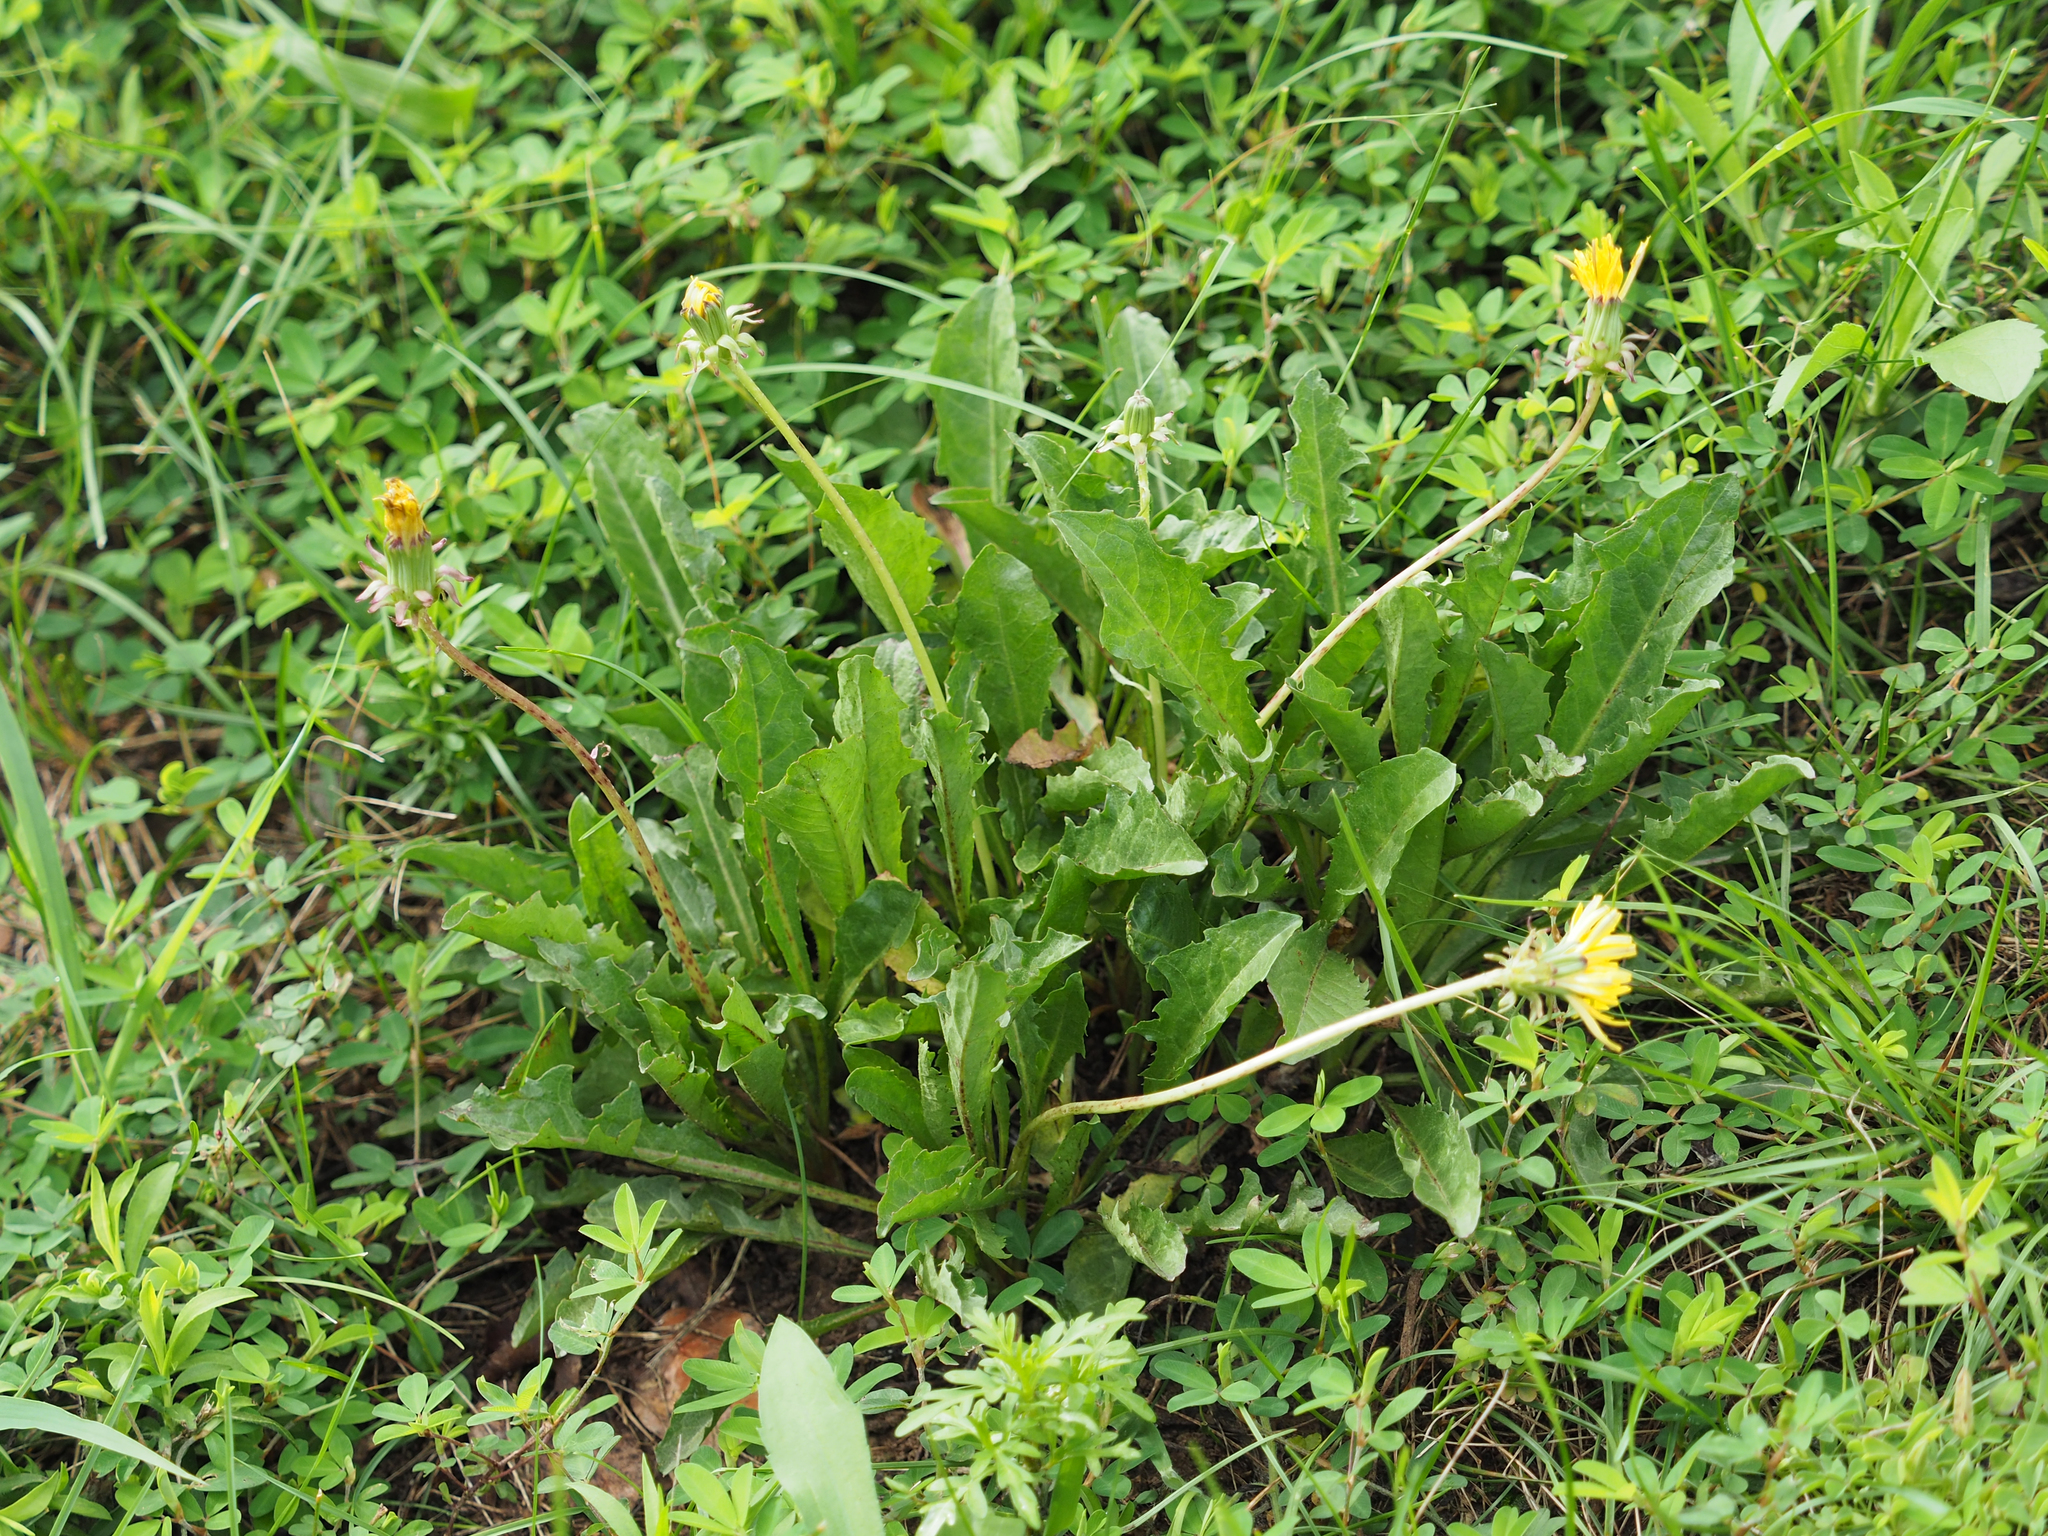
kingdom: Plantae
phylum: Tracheophyta
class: Magnoliopsida
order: Asterales
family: Asteraceae
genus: Taraxacum
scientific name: Taraxacum officinale
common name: Common dandelion
